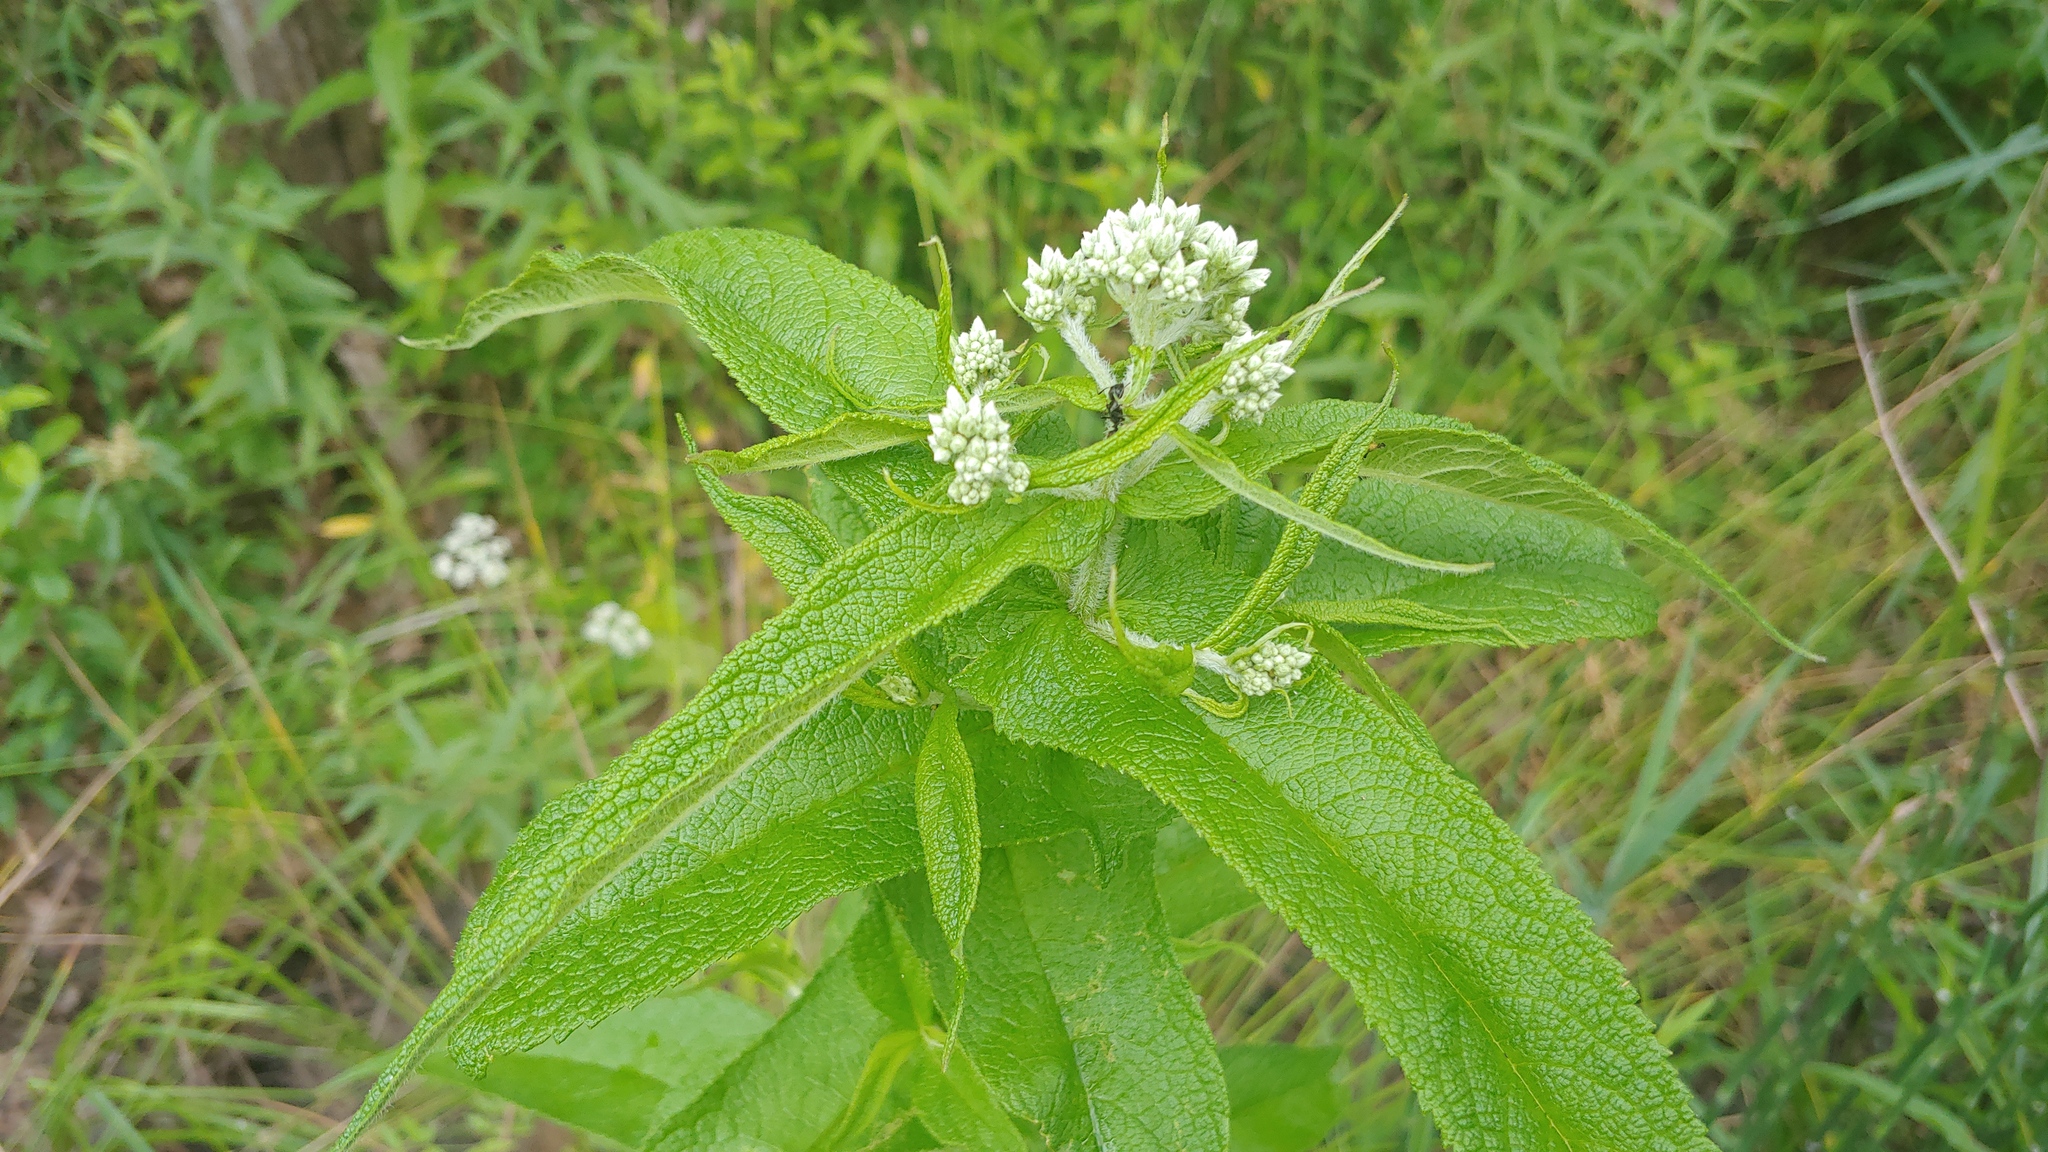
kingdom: Plantae
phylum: Tracheophyta
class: Magnoliopsida
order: Asterales
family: Asteraceae
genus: Eupatorium
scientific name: Eupatorium perfoliatum
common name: Boneset
